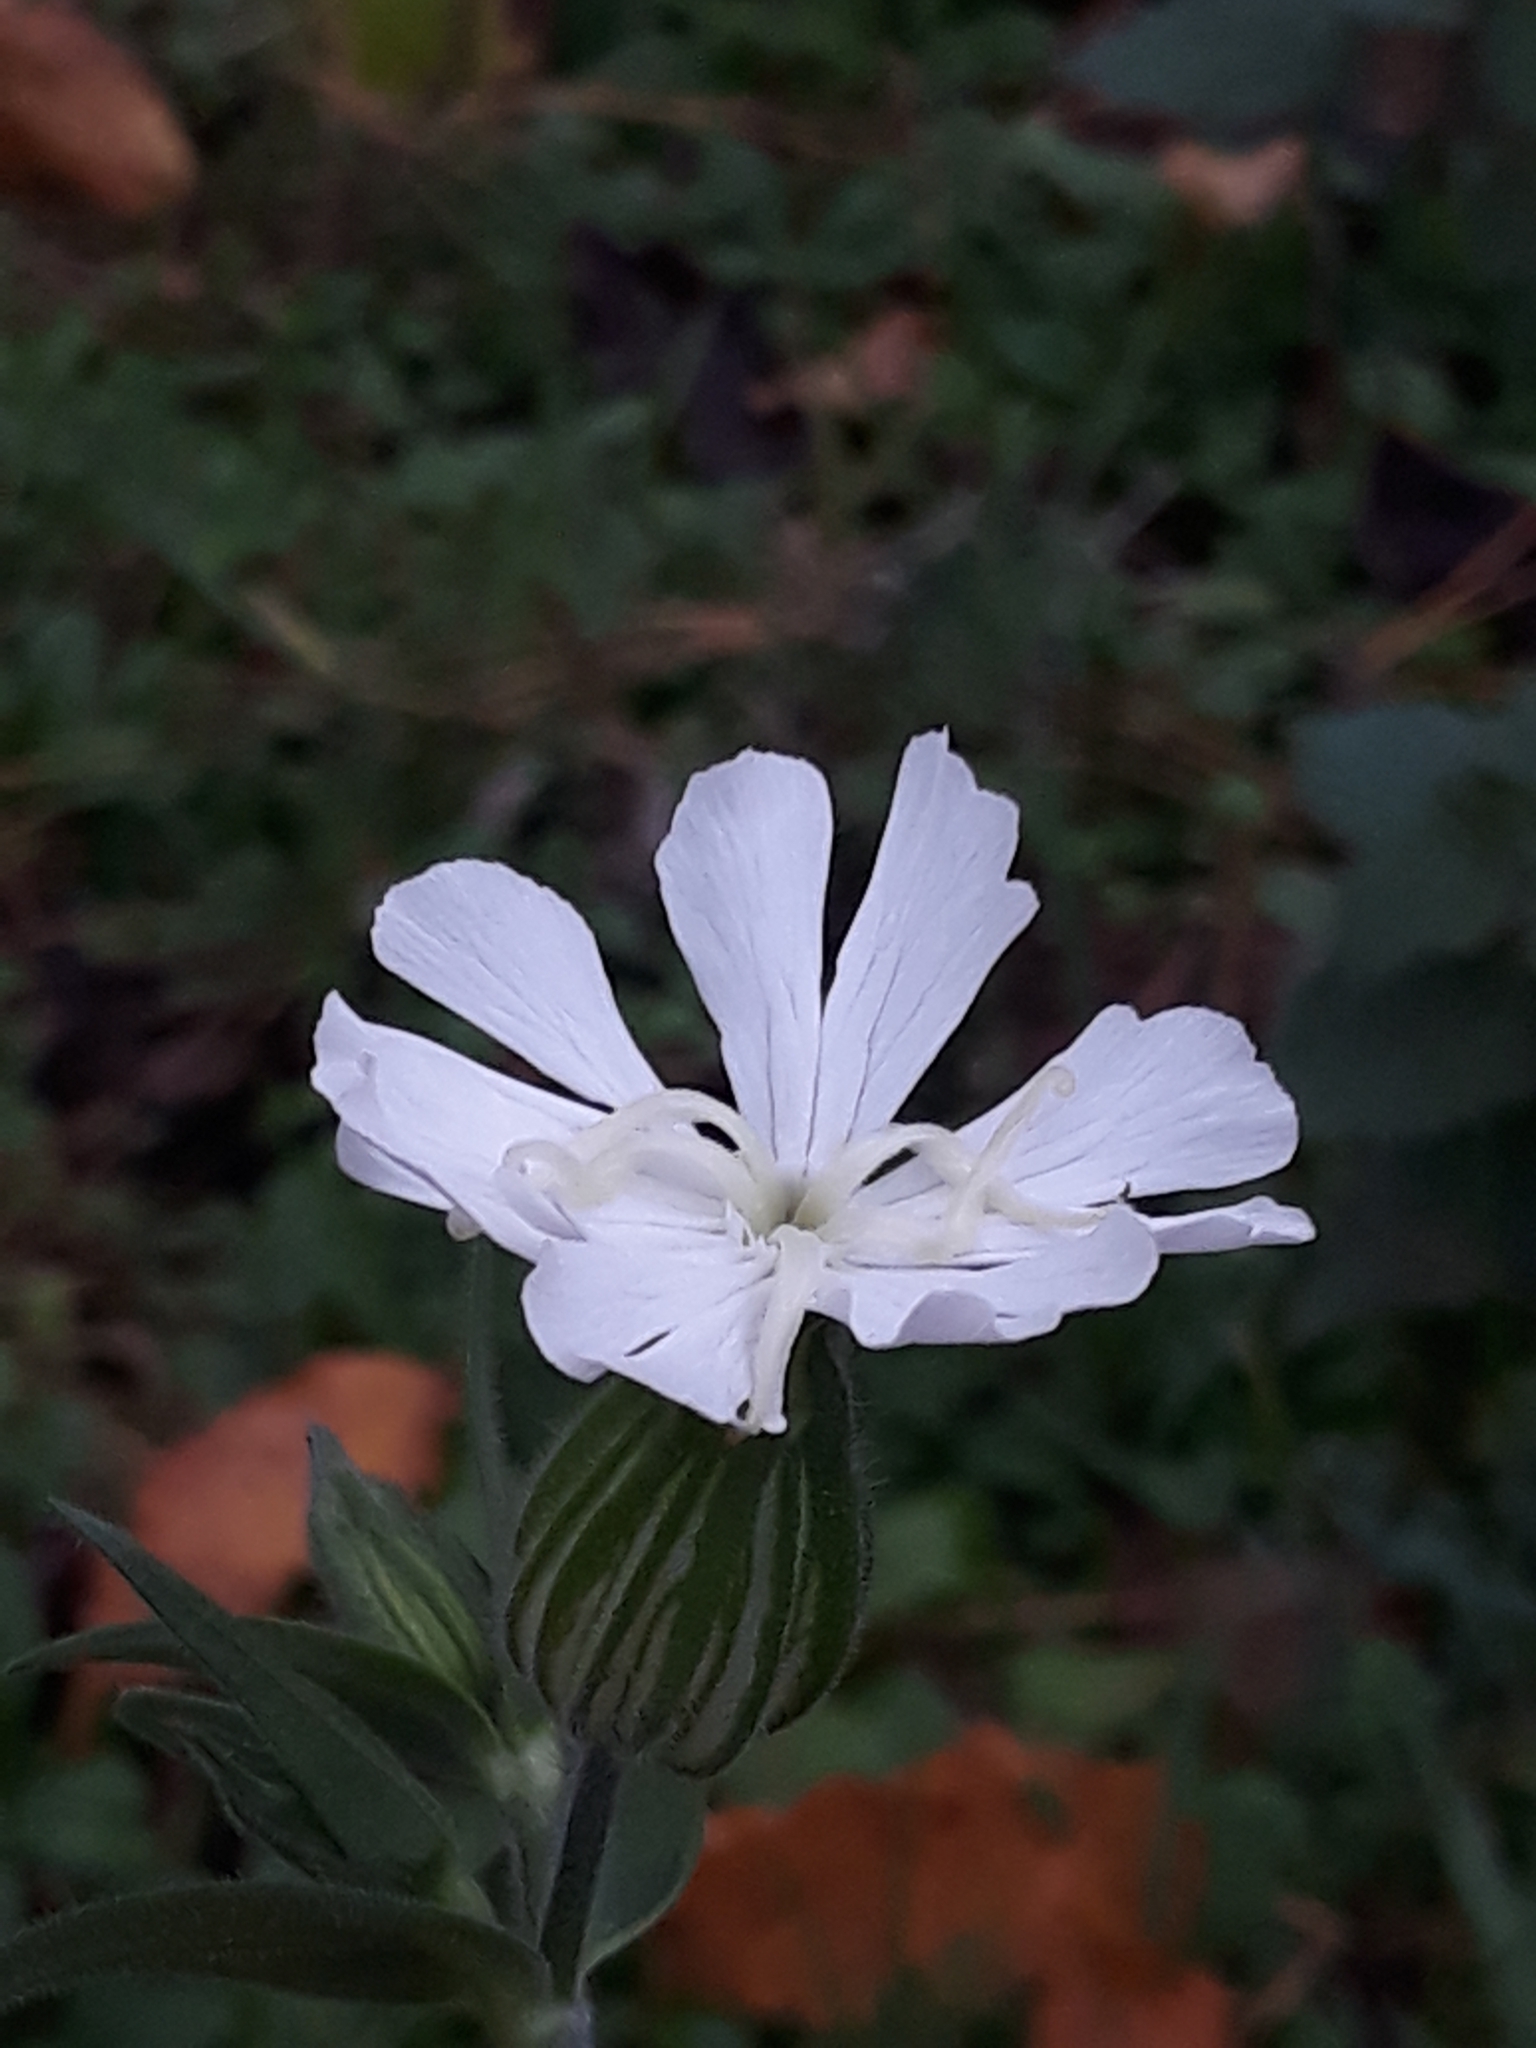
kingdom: Plantae
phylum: Tracheophyta
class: Magnoliopsida
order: Caryophyllales
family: Caryophyllaceae
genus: Silene
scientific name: Silene latifolia
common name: White campion
